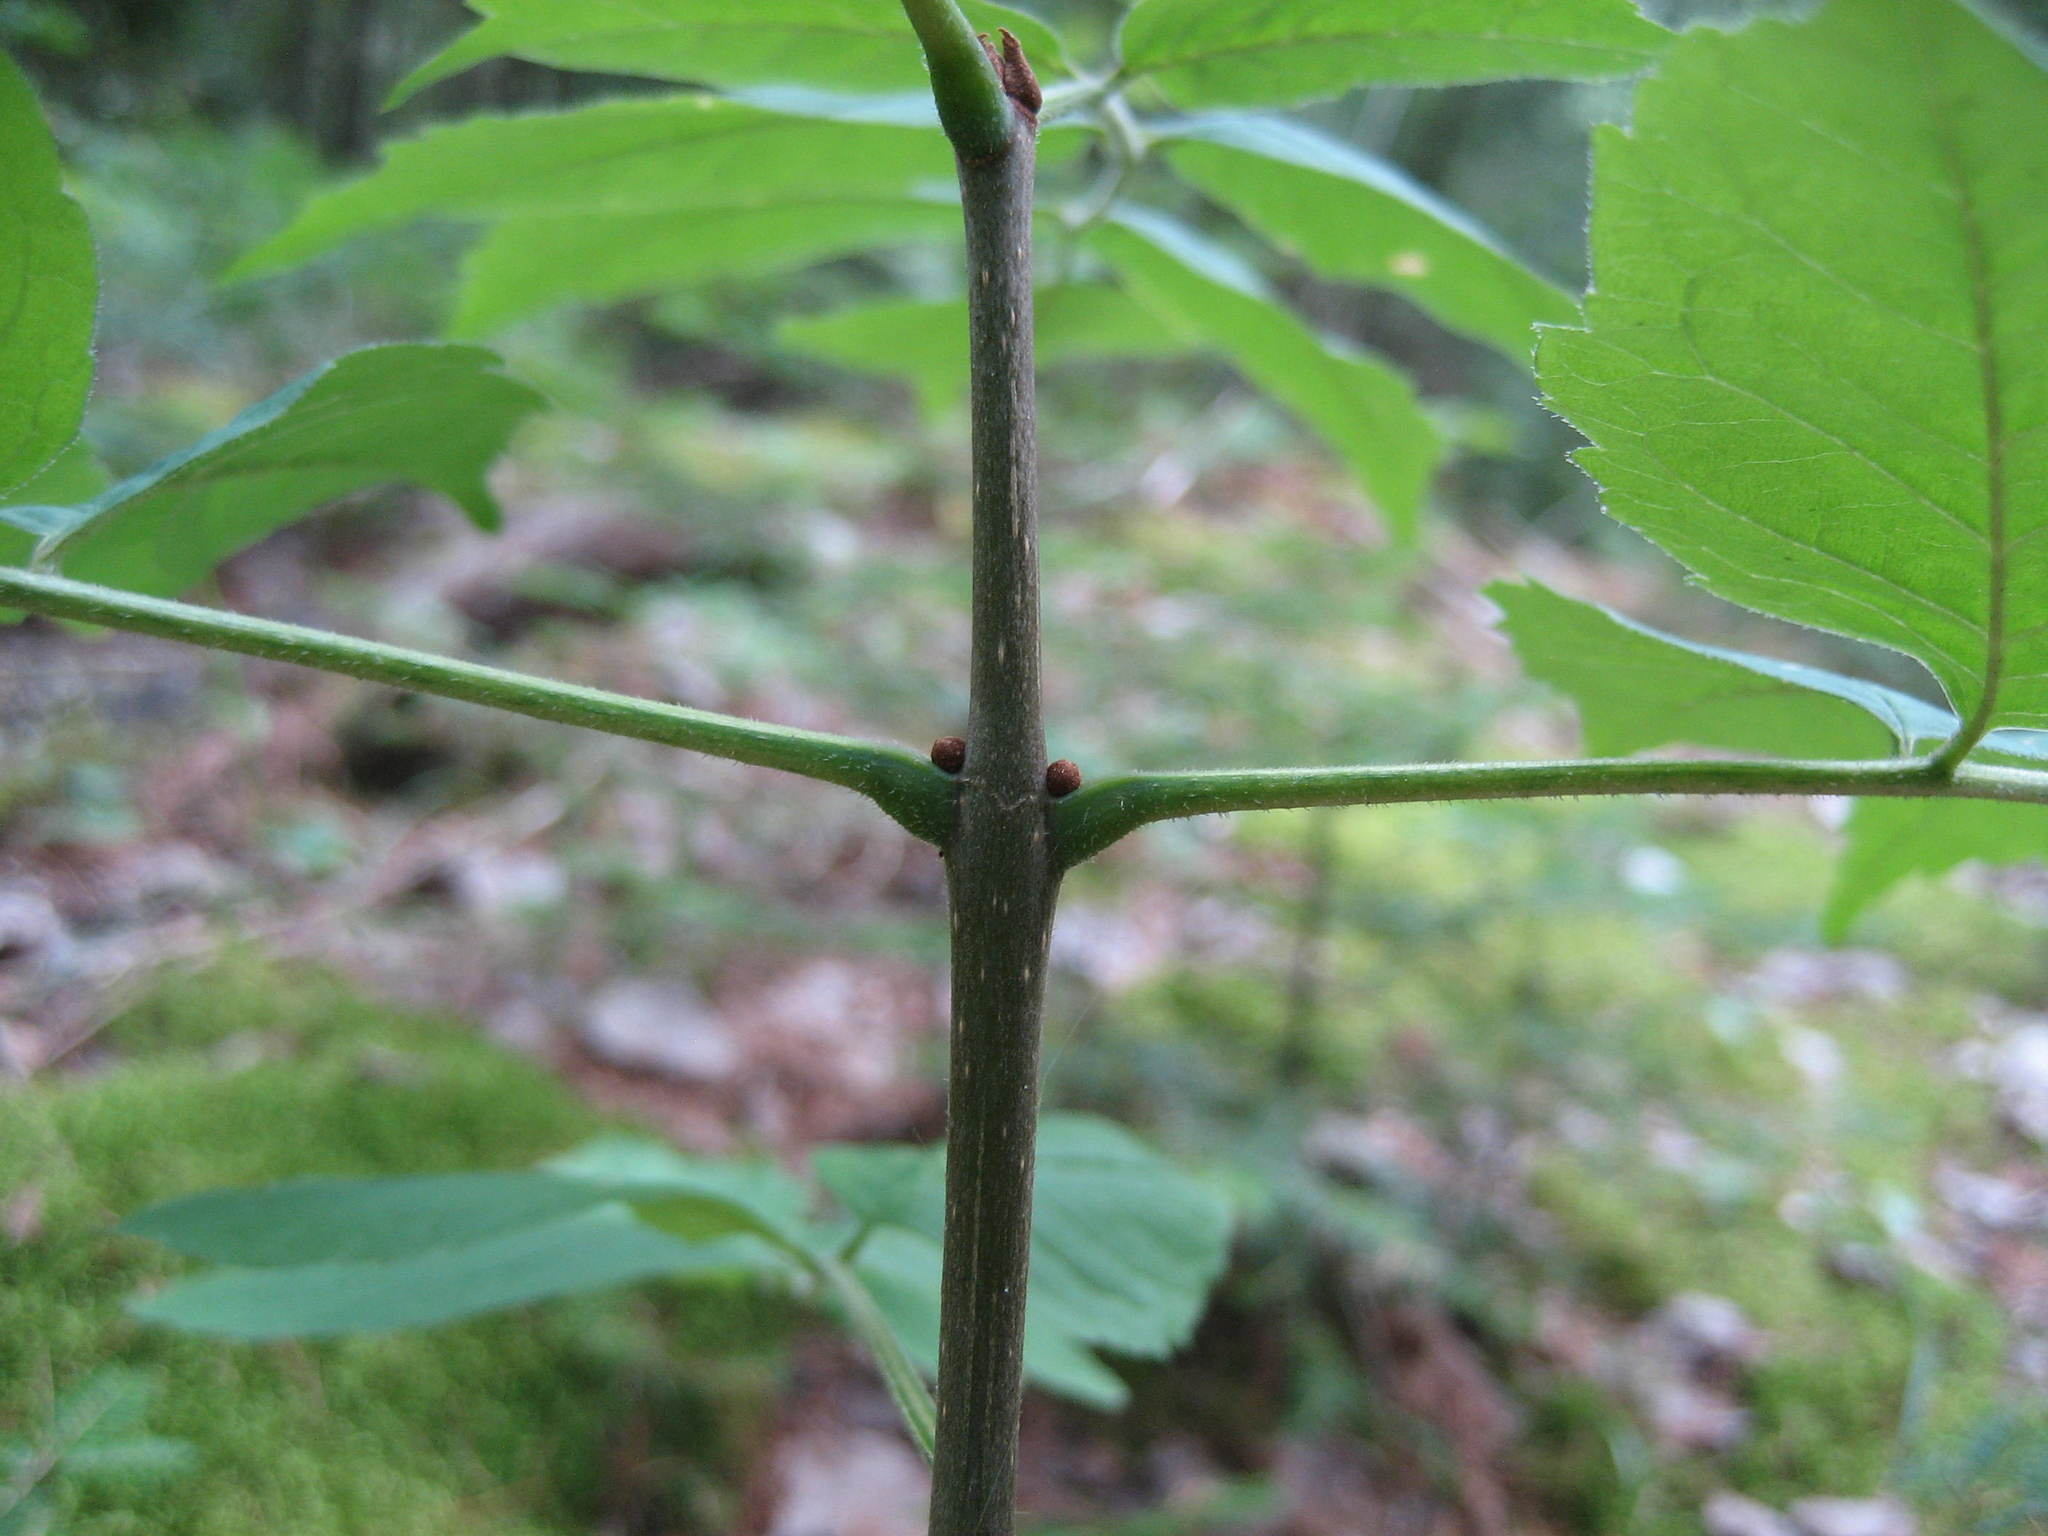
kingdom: Plantae
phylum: Tracheophyta
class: Magnoliopsida
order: Lamiales
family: Oleaceae
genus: Fraxinus
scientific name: Fraxinus pennsylvanica
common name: Green ash
